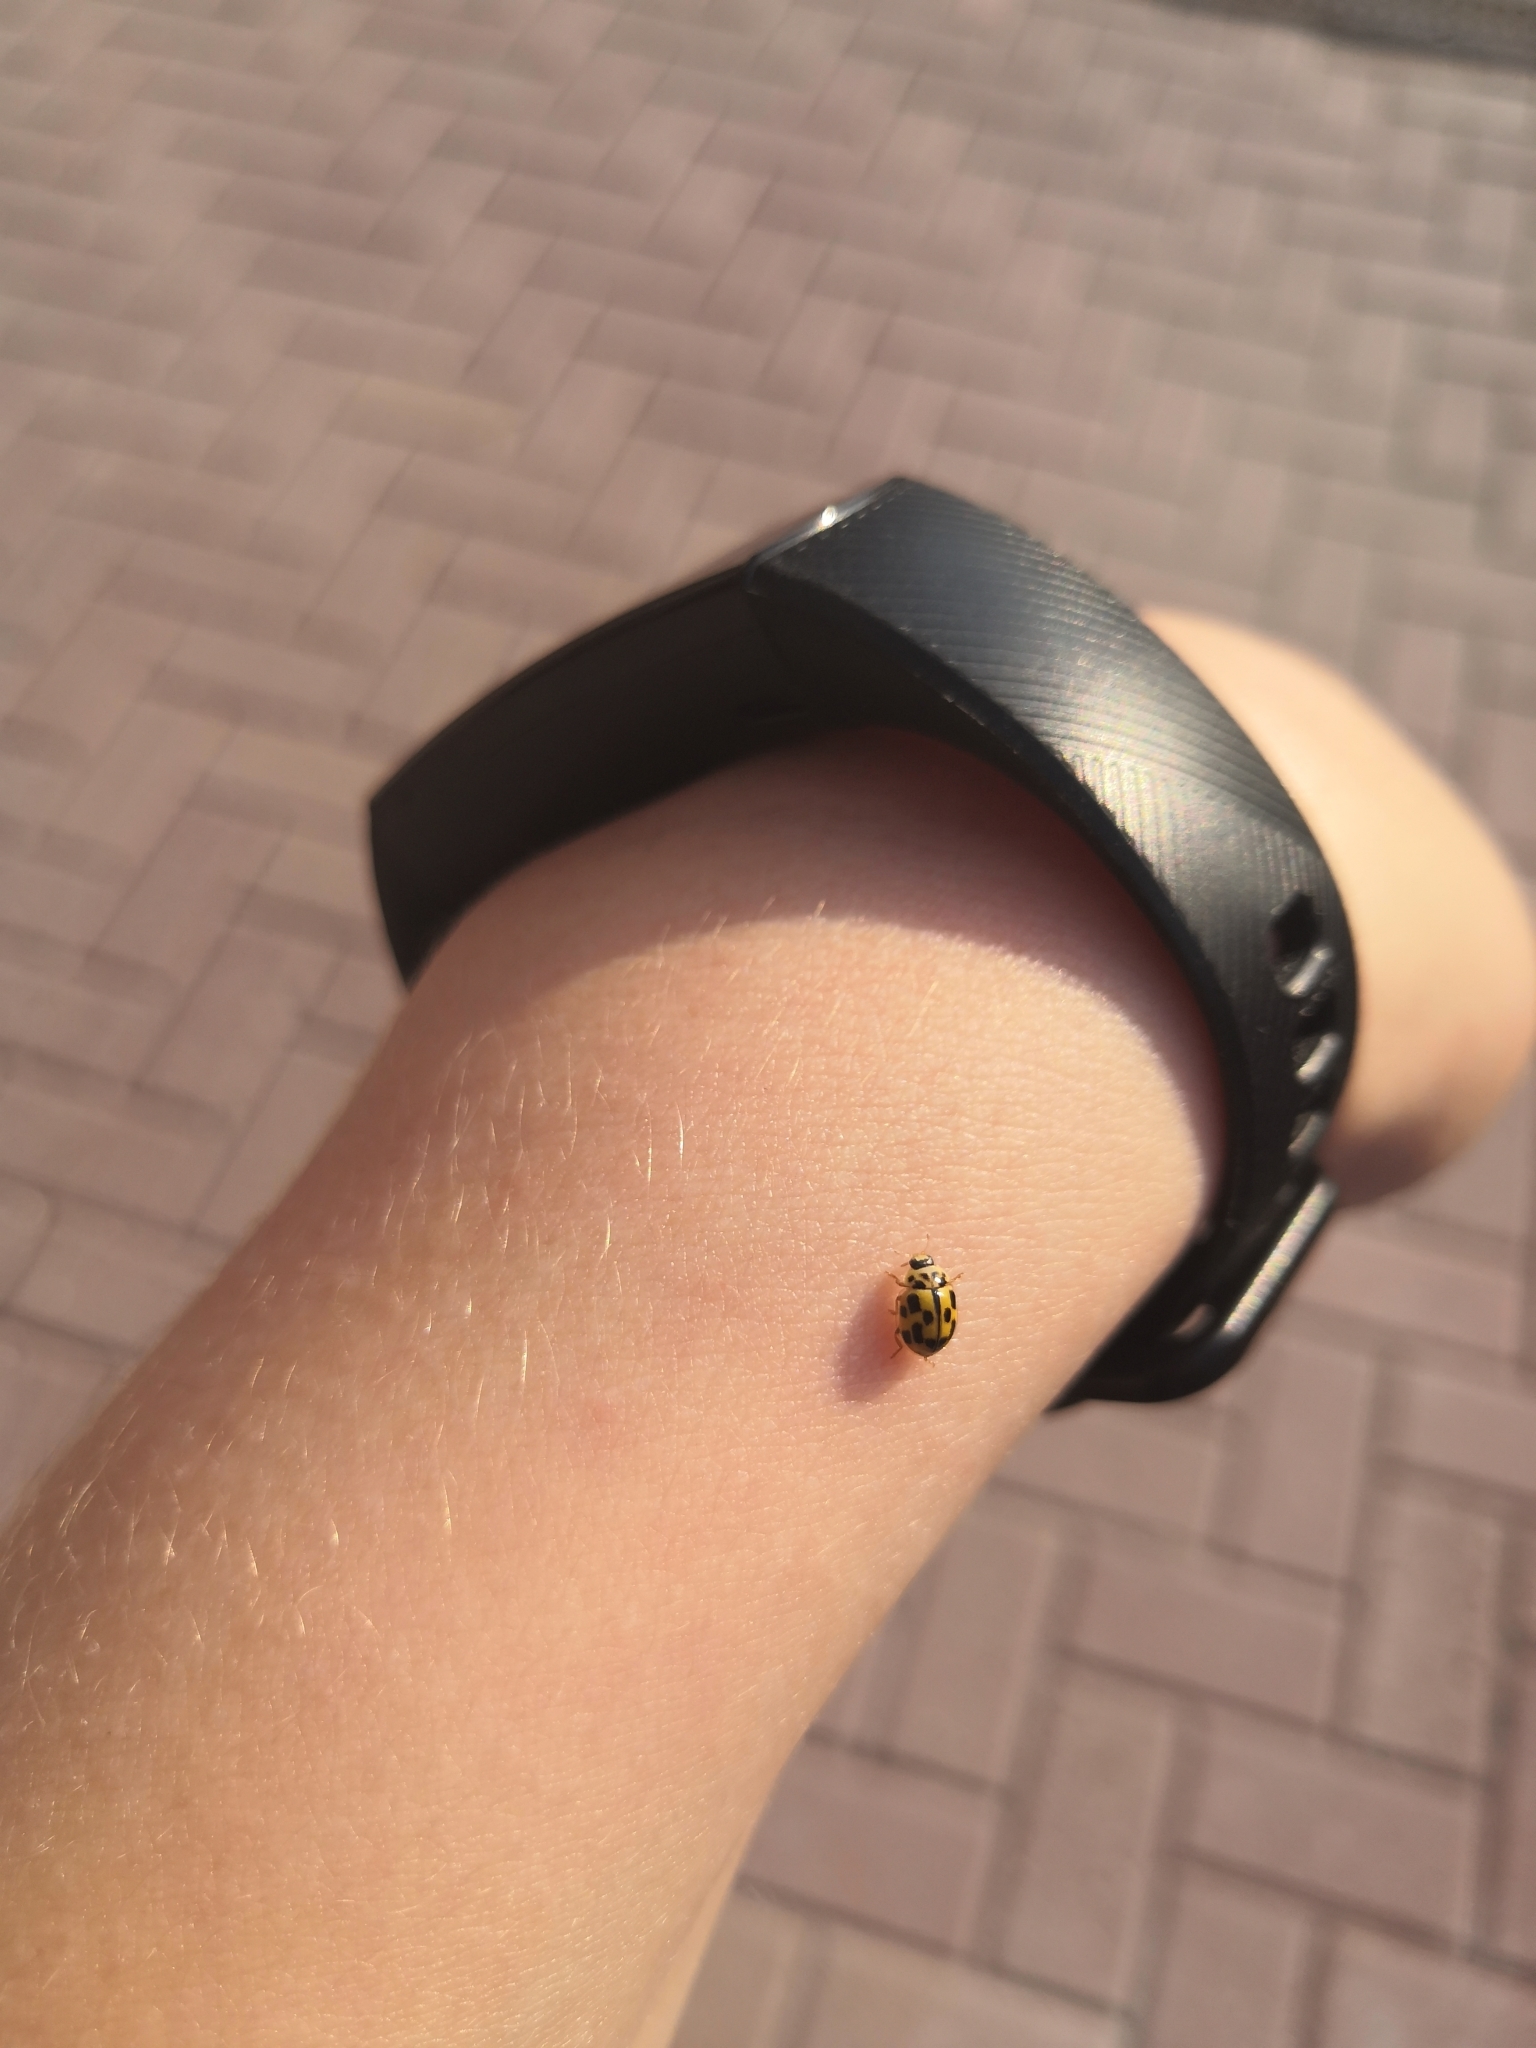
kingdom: Animalia
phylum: Arthropoda
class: Insecta
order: Coleoptera
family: Coccinellidae
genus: Propylaea
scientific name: Propylaea quatuordecimpunctata
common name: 14-spotted ladybird beetle
